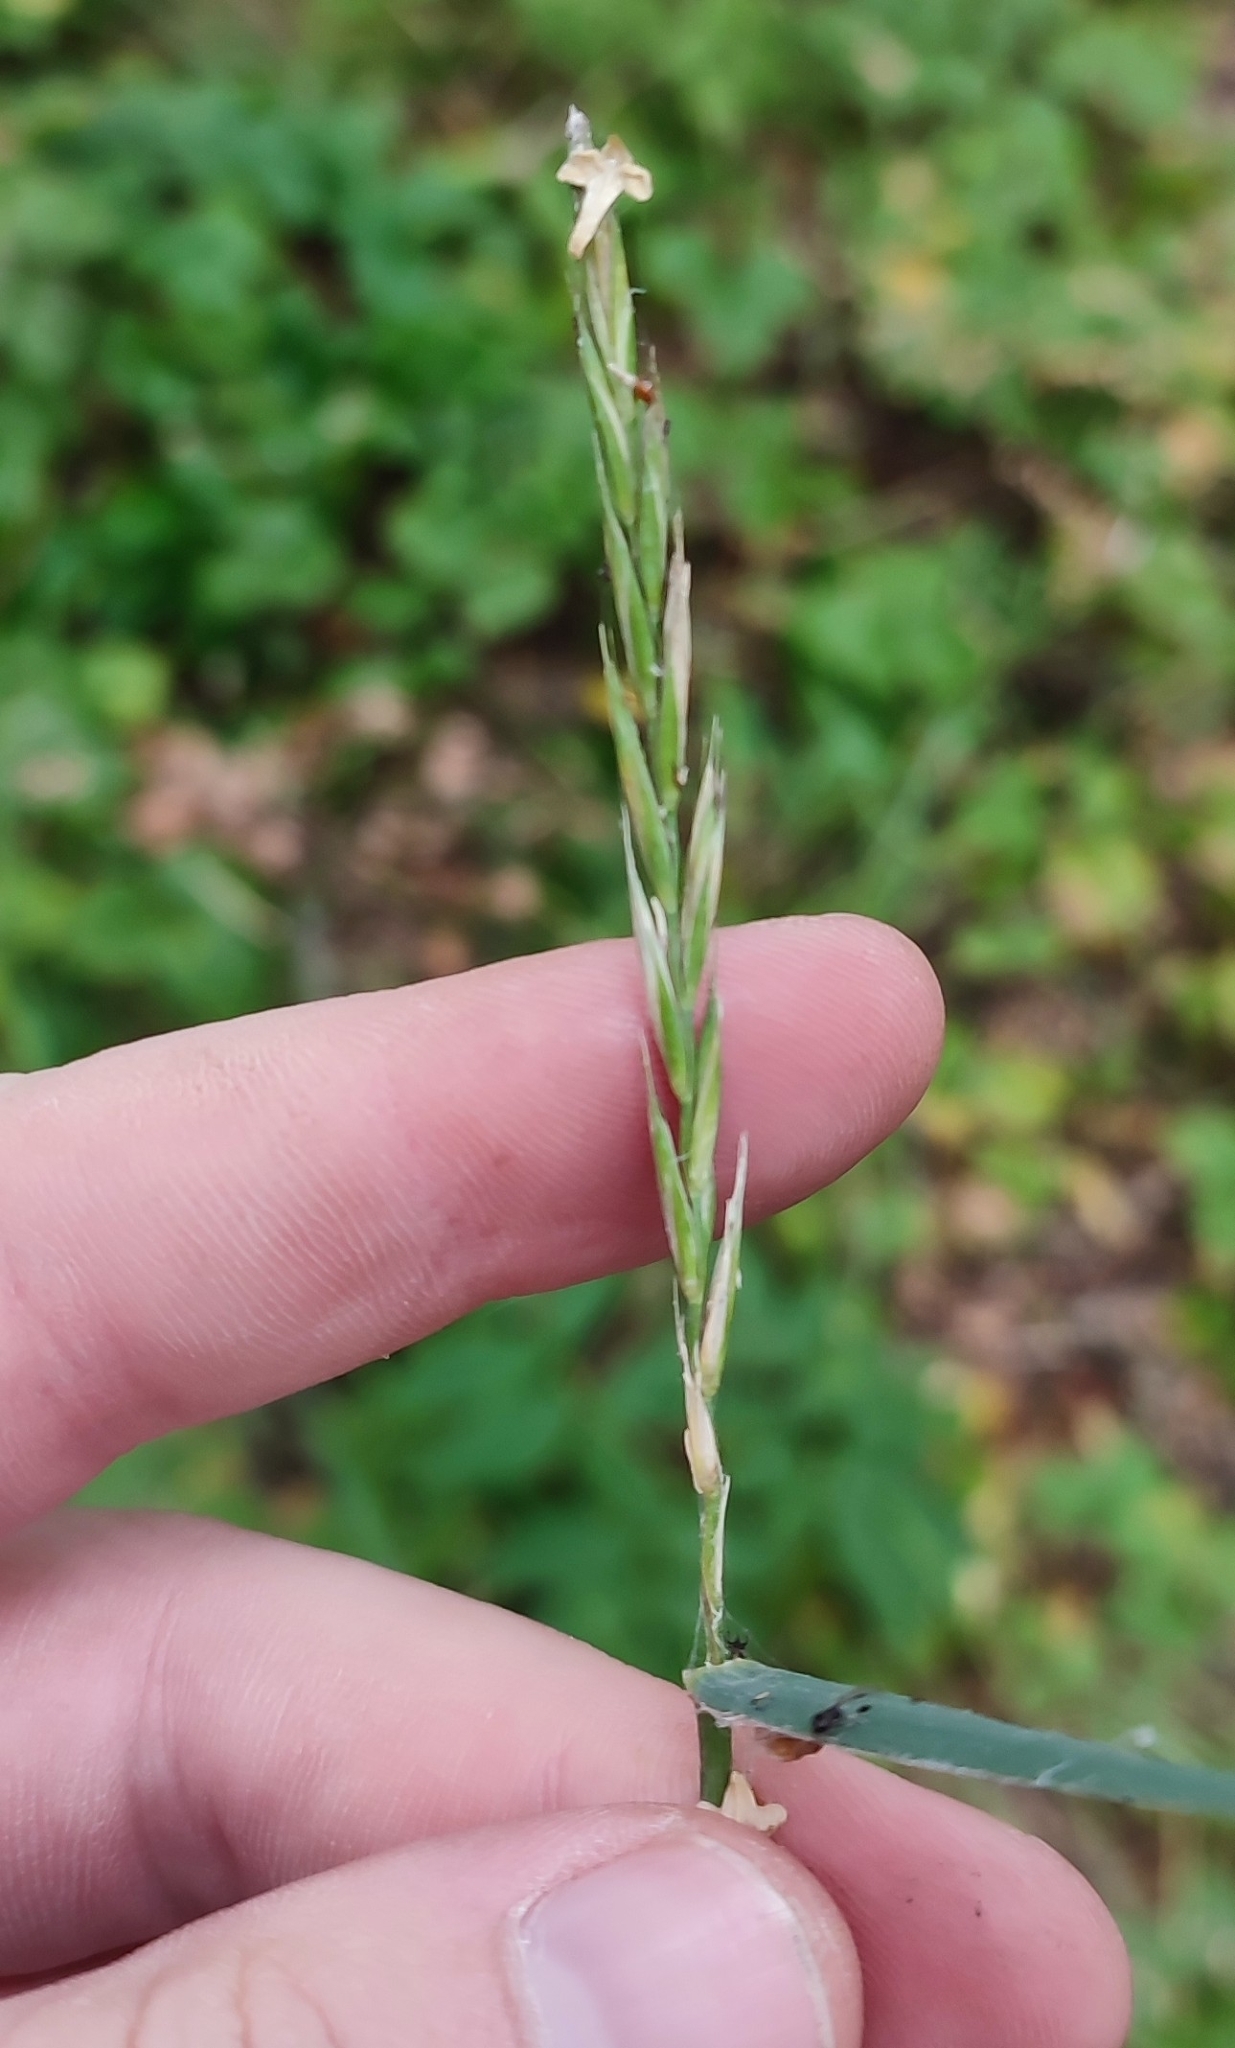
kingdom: Plantae
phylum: Tracheophyta
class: Liliopsida
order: Poales
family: Poaceae
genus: Elymus
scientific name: Elymus repens
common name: Quackgrass
